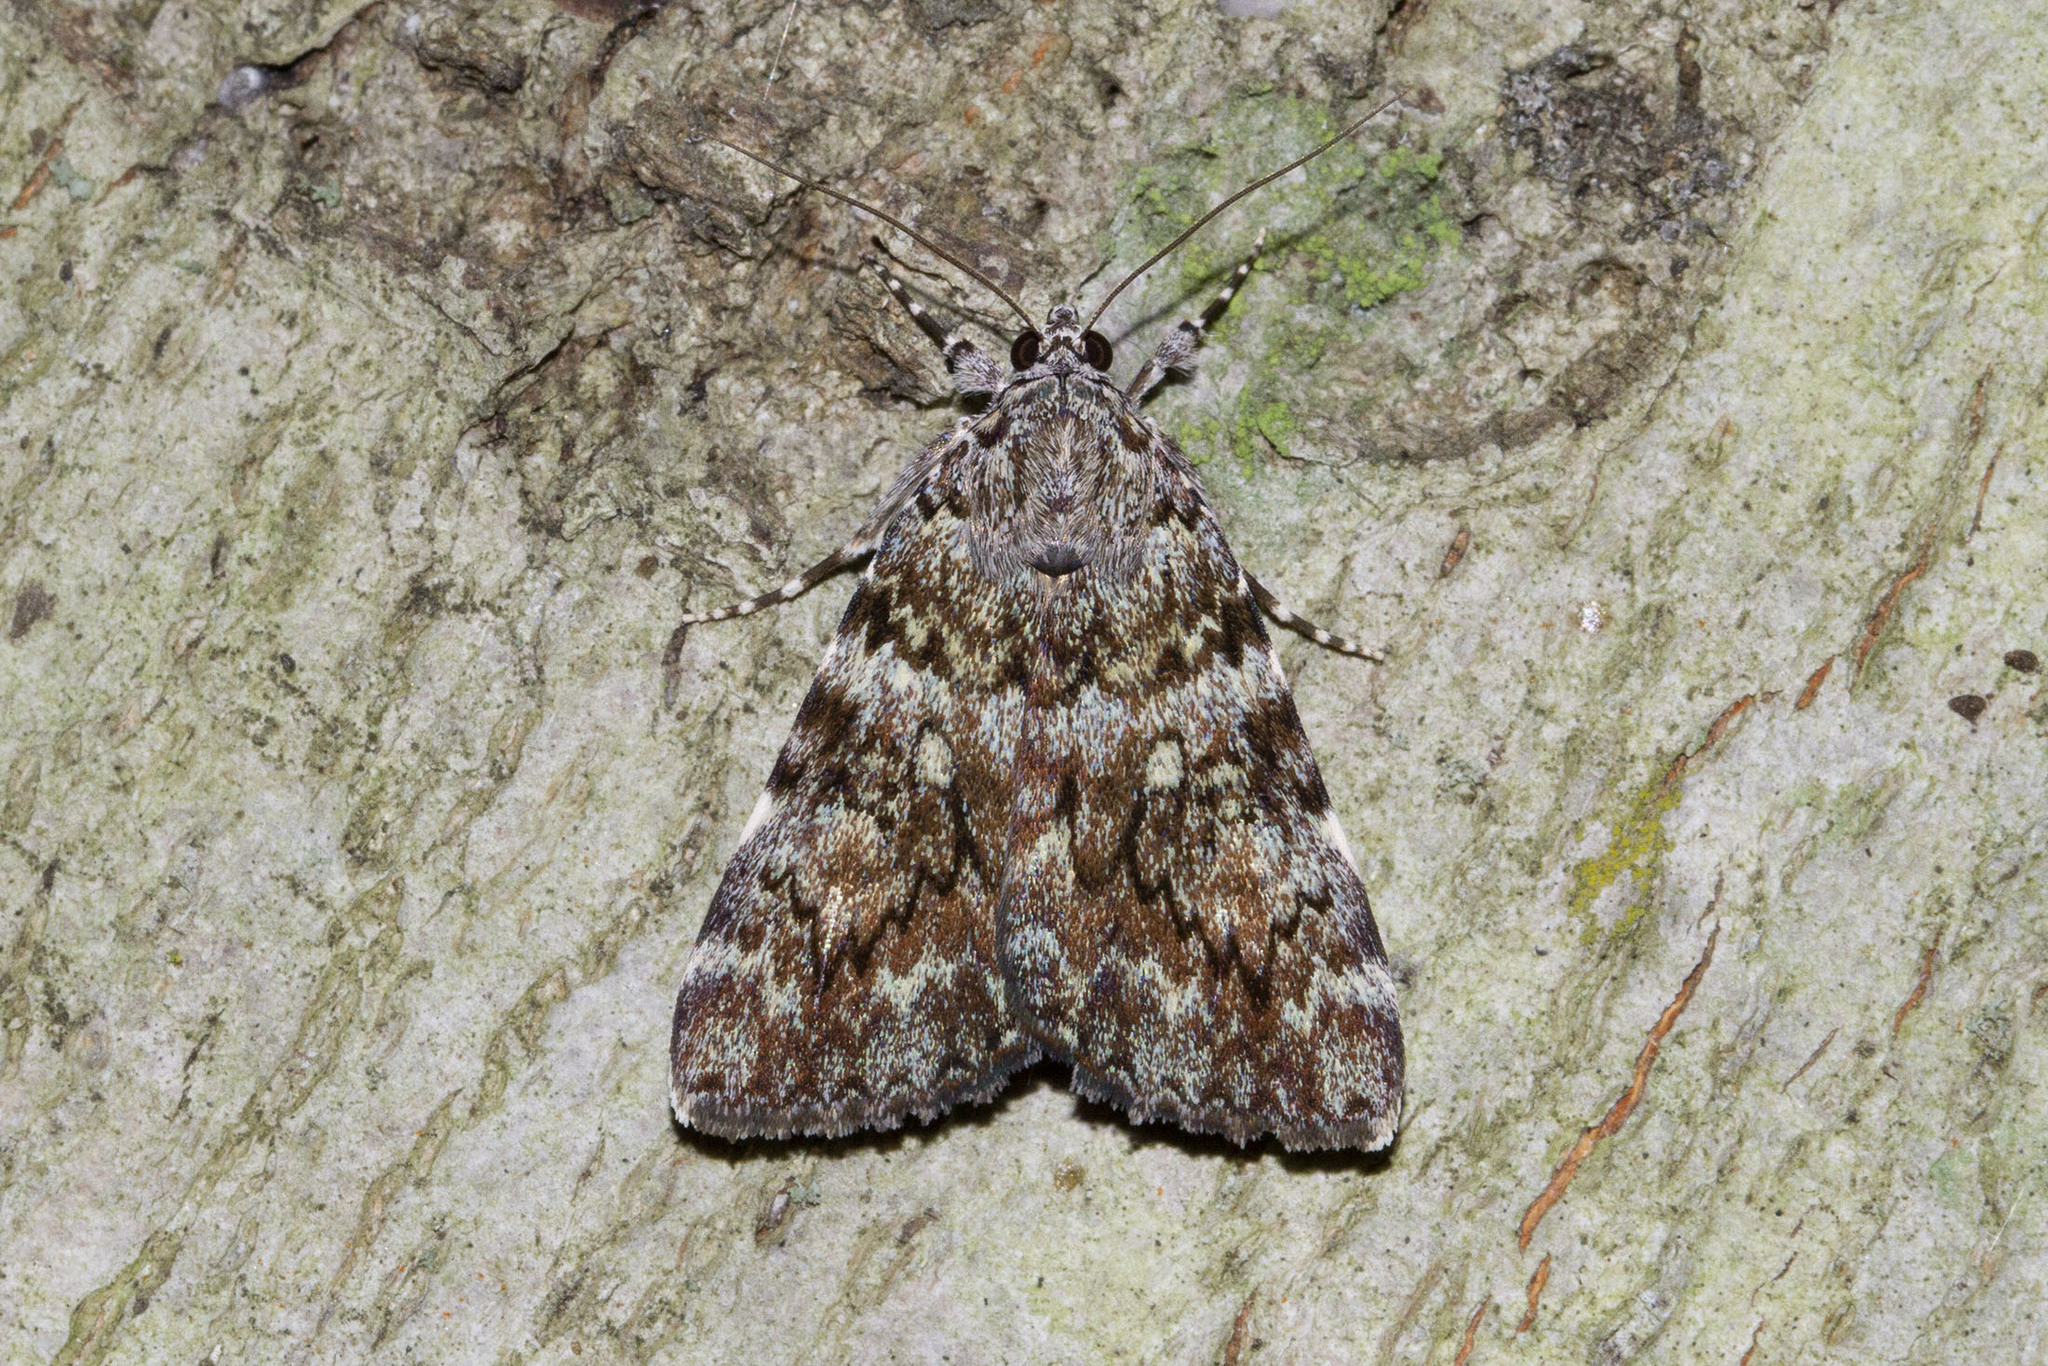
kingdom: Animalia
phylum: Arthropoda
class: Insecta
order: Lepidoptera
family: Erebidae
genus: Catocala
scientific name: Catocala lineella
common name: Little lined underwing
